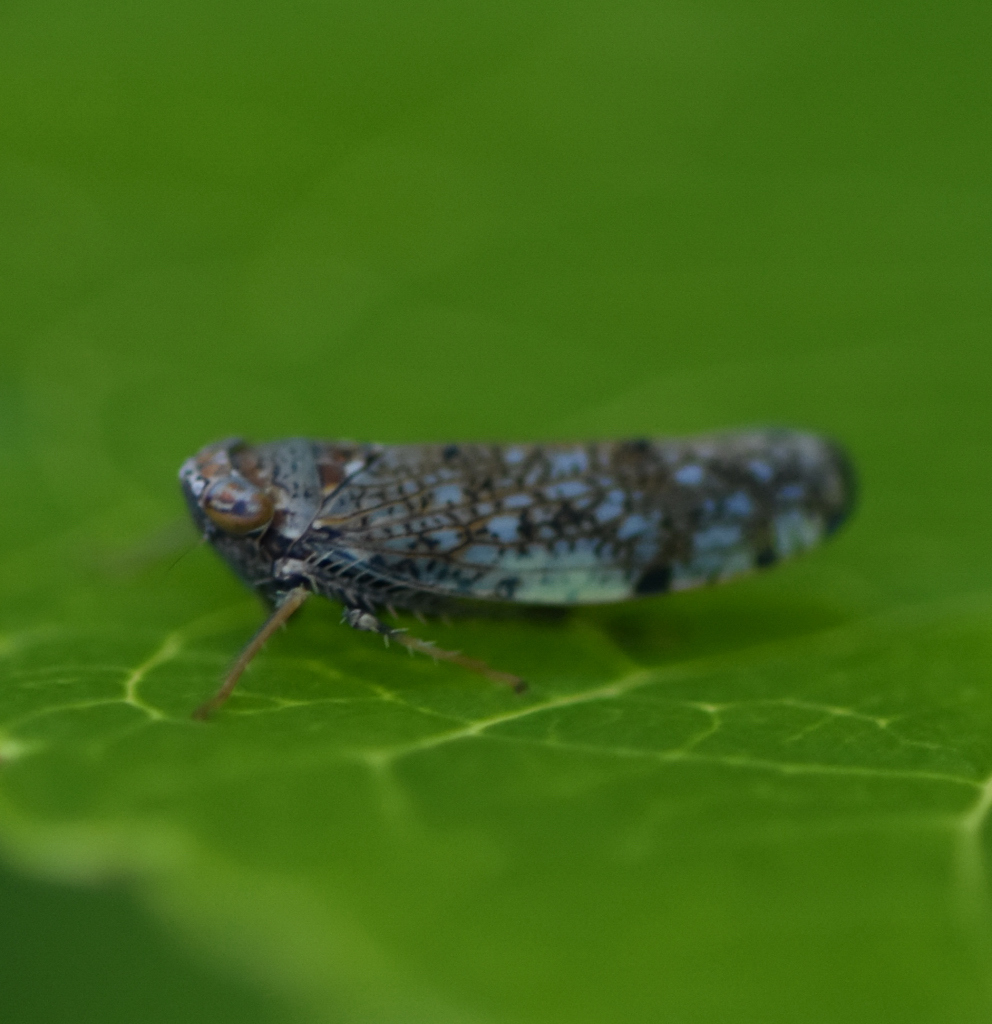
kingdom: Animalia
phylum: Arthropoda
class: Insecta
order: Hemiptera
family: Cicadellidae
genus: Orientus
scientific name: Orientus ishidae
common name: Japanese leafhopper
